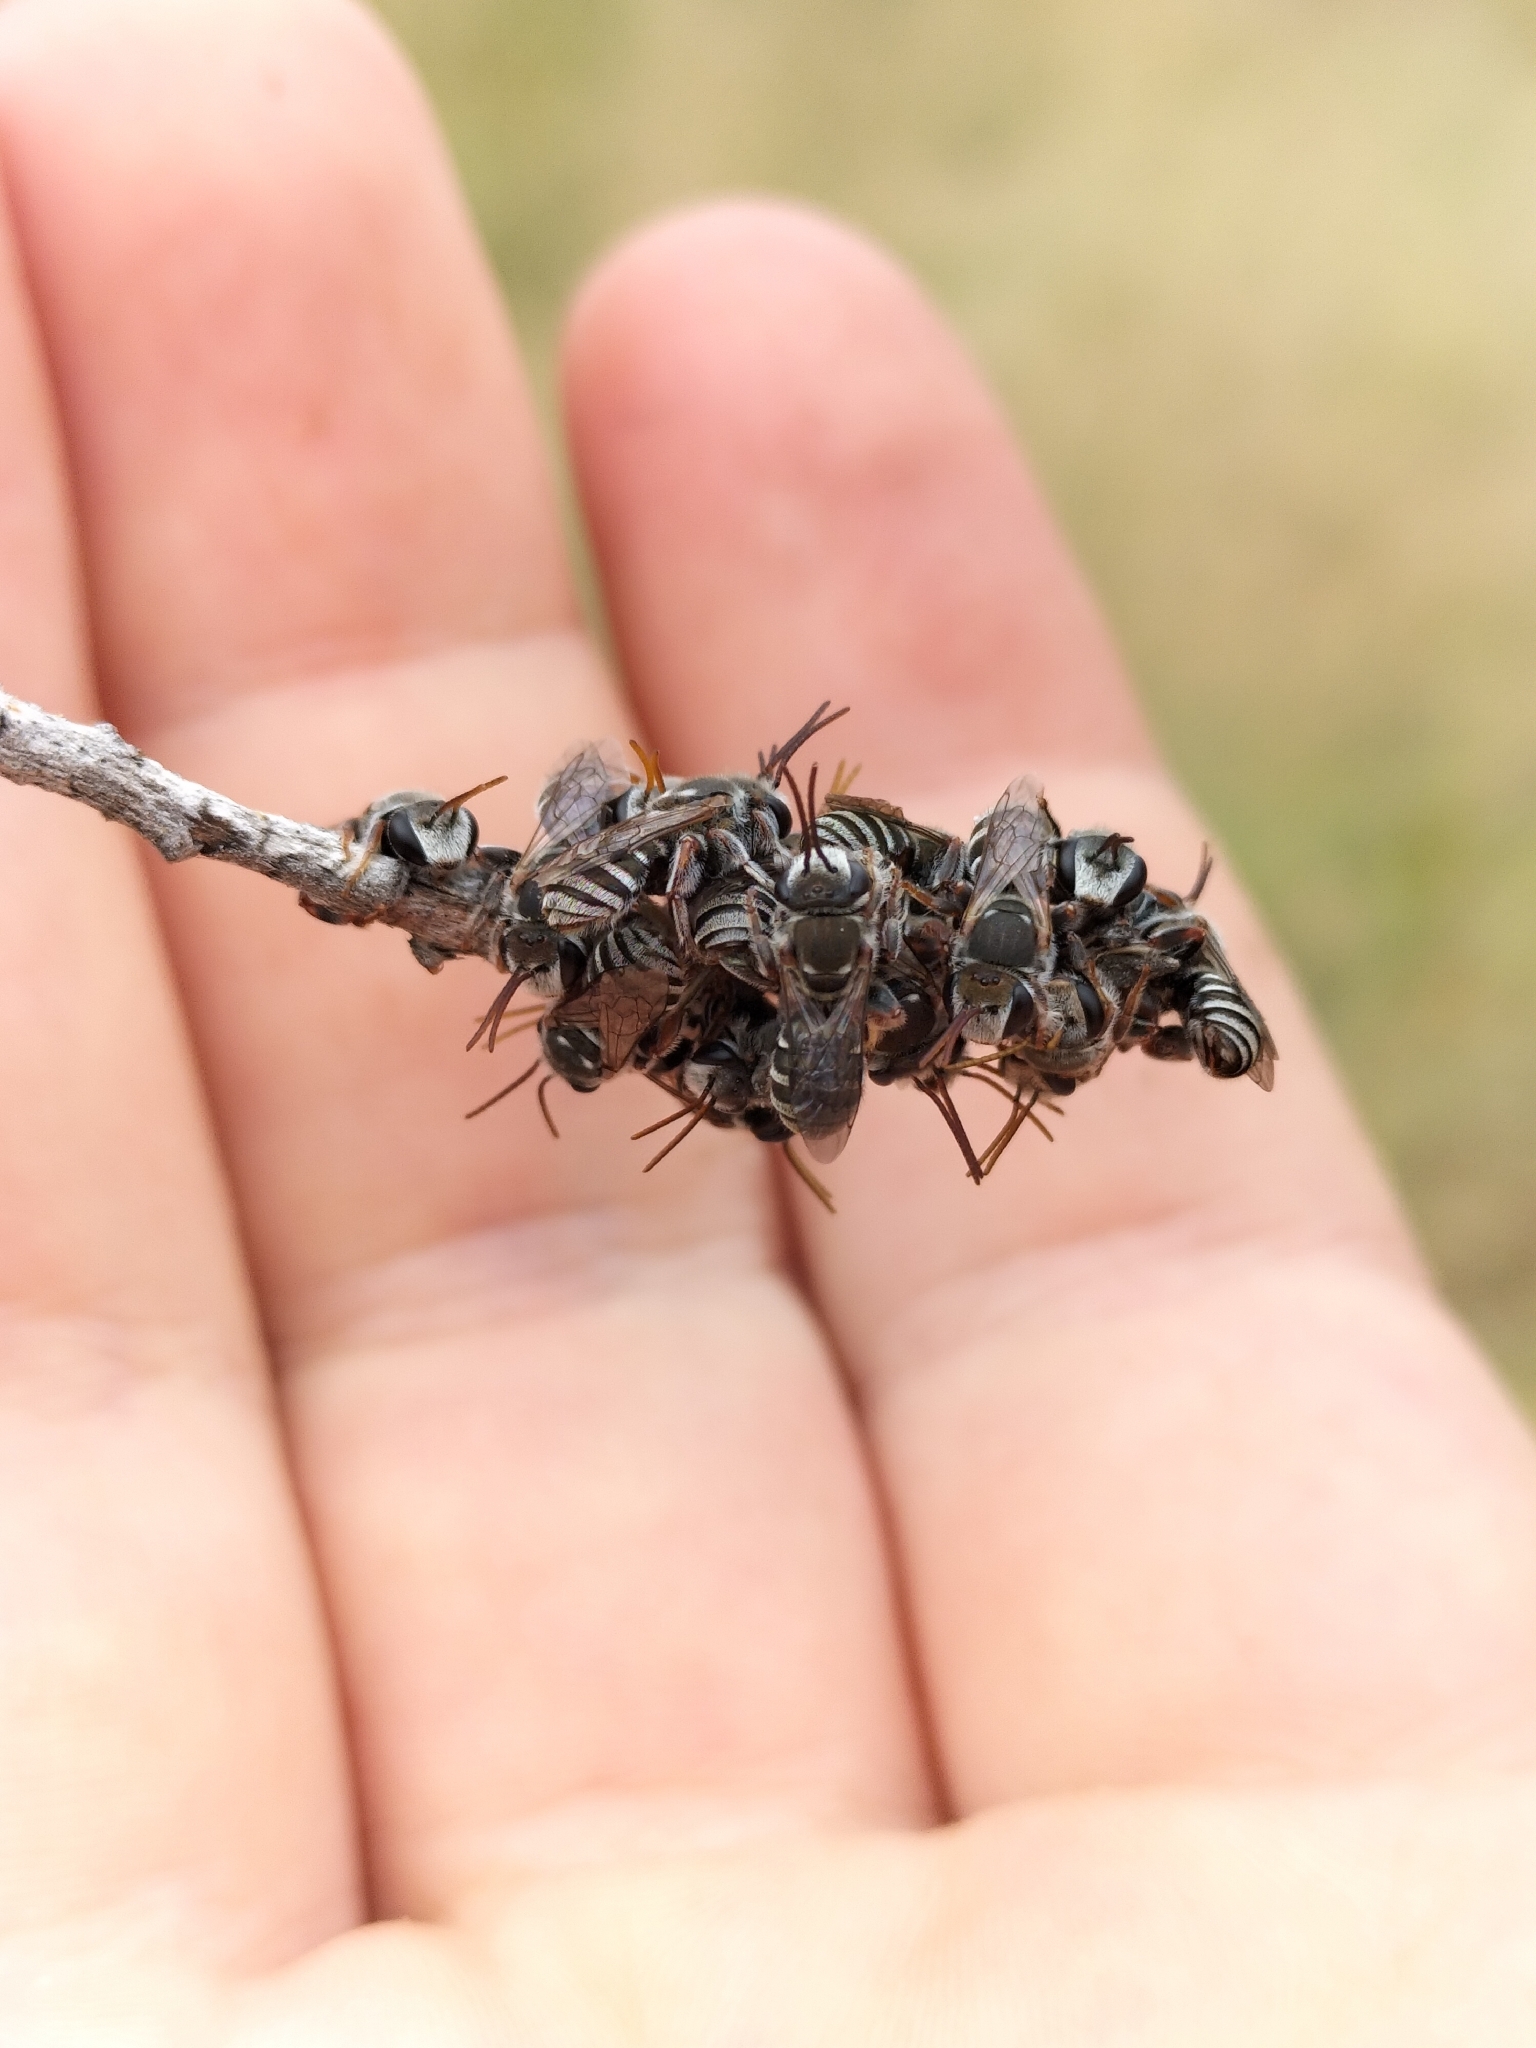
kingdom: Animalia
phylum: Arthropoda
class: Insecta
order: Hymenoptera
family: Halictidae
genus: Lipotriches
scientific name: Lipotriches flavoviridis
